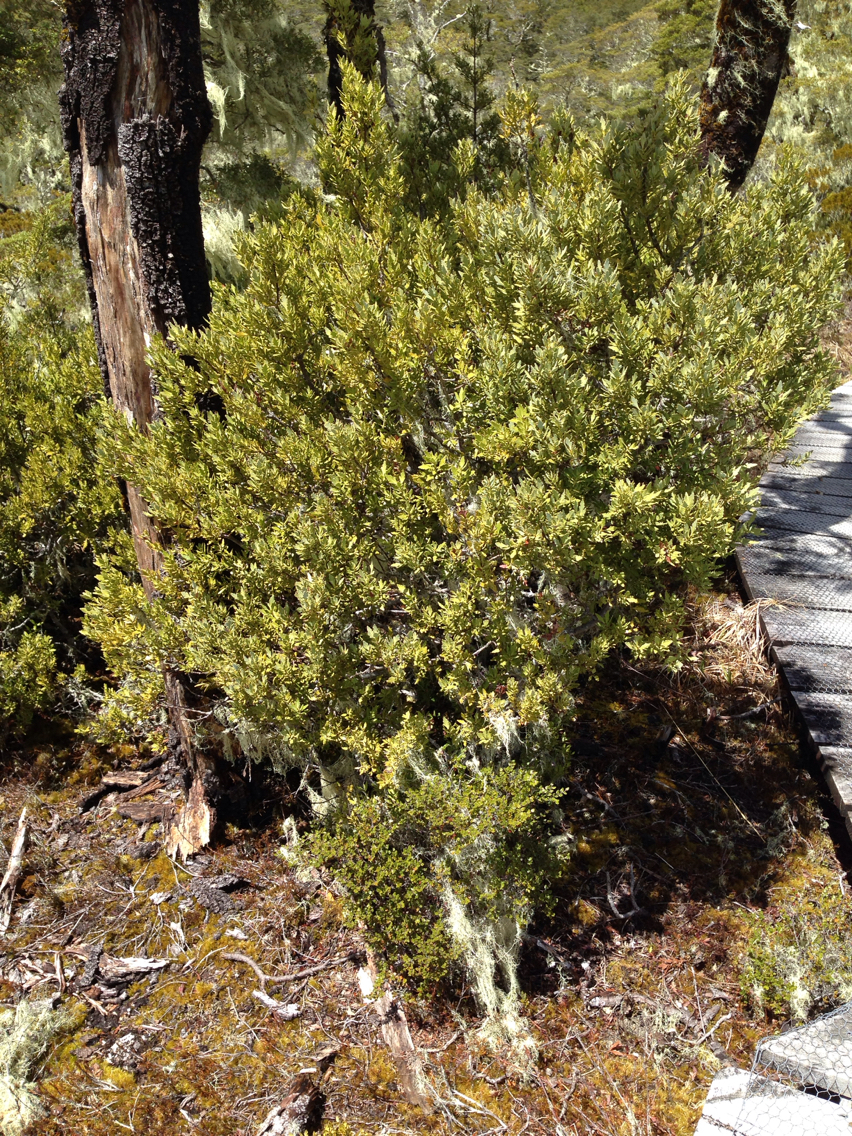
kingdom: Plantae
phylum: Tracheophyta
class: Pinopsida
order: Pinales
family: Phyllocladaceae
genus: Phyllocladus
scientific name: Phyllocladus trichomanoides
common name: Celery pine
